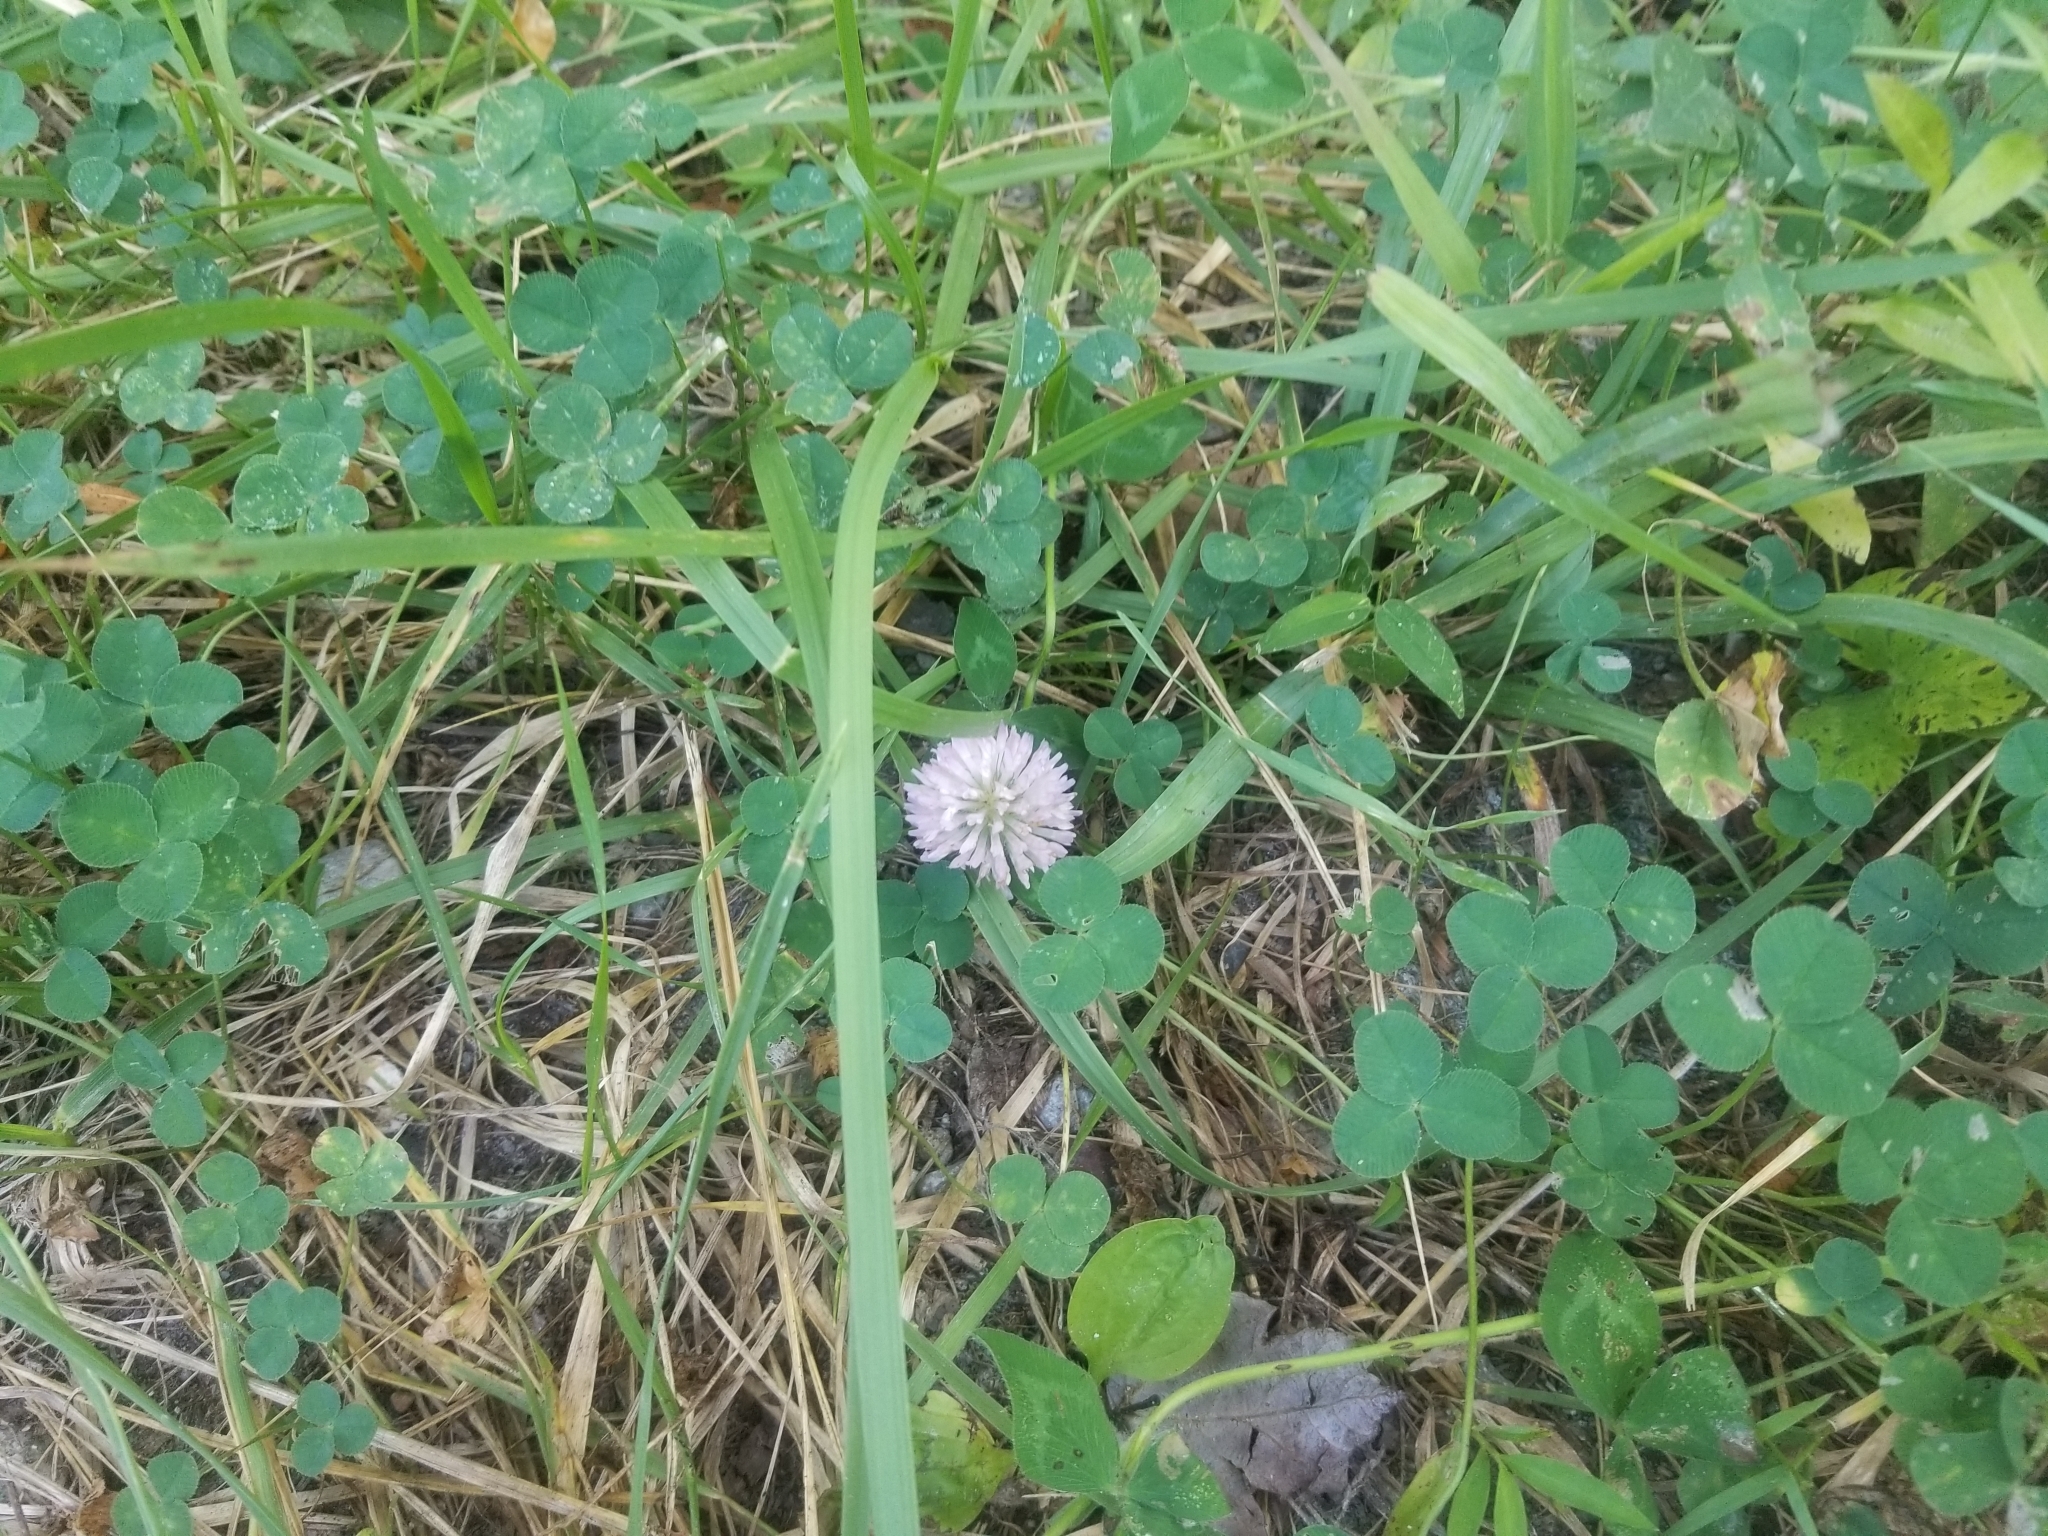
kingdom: Plantae
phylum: Tracheophyta
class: Magnoliopsida
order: Fabales
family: Fabaceae
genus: Trifolium
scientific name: Trifolium pratense
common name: Red clover
